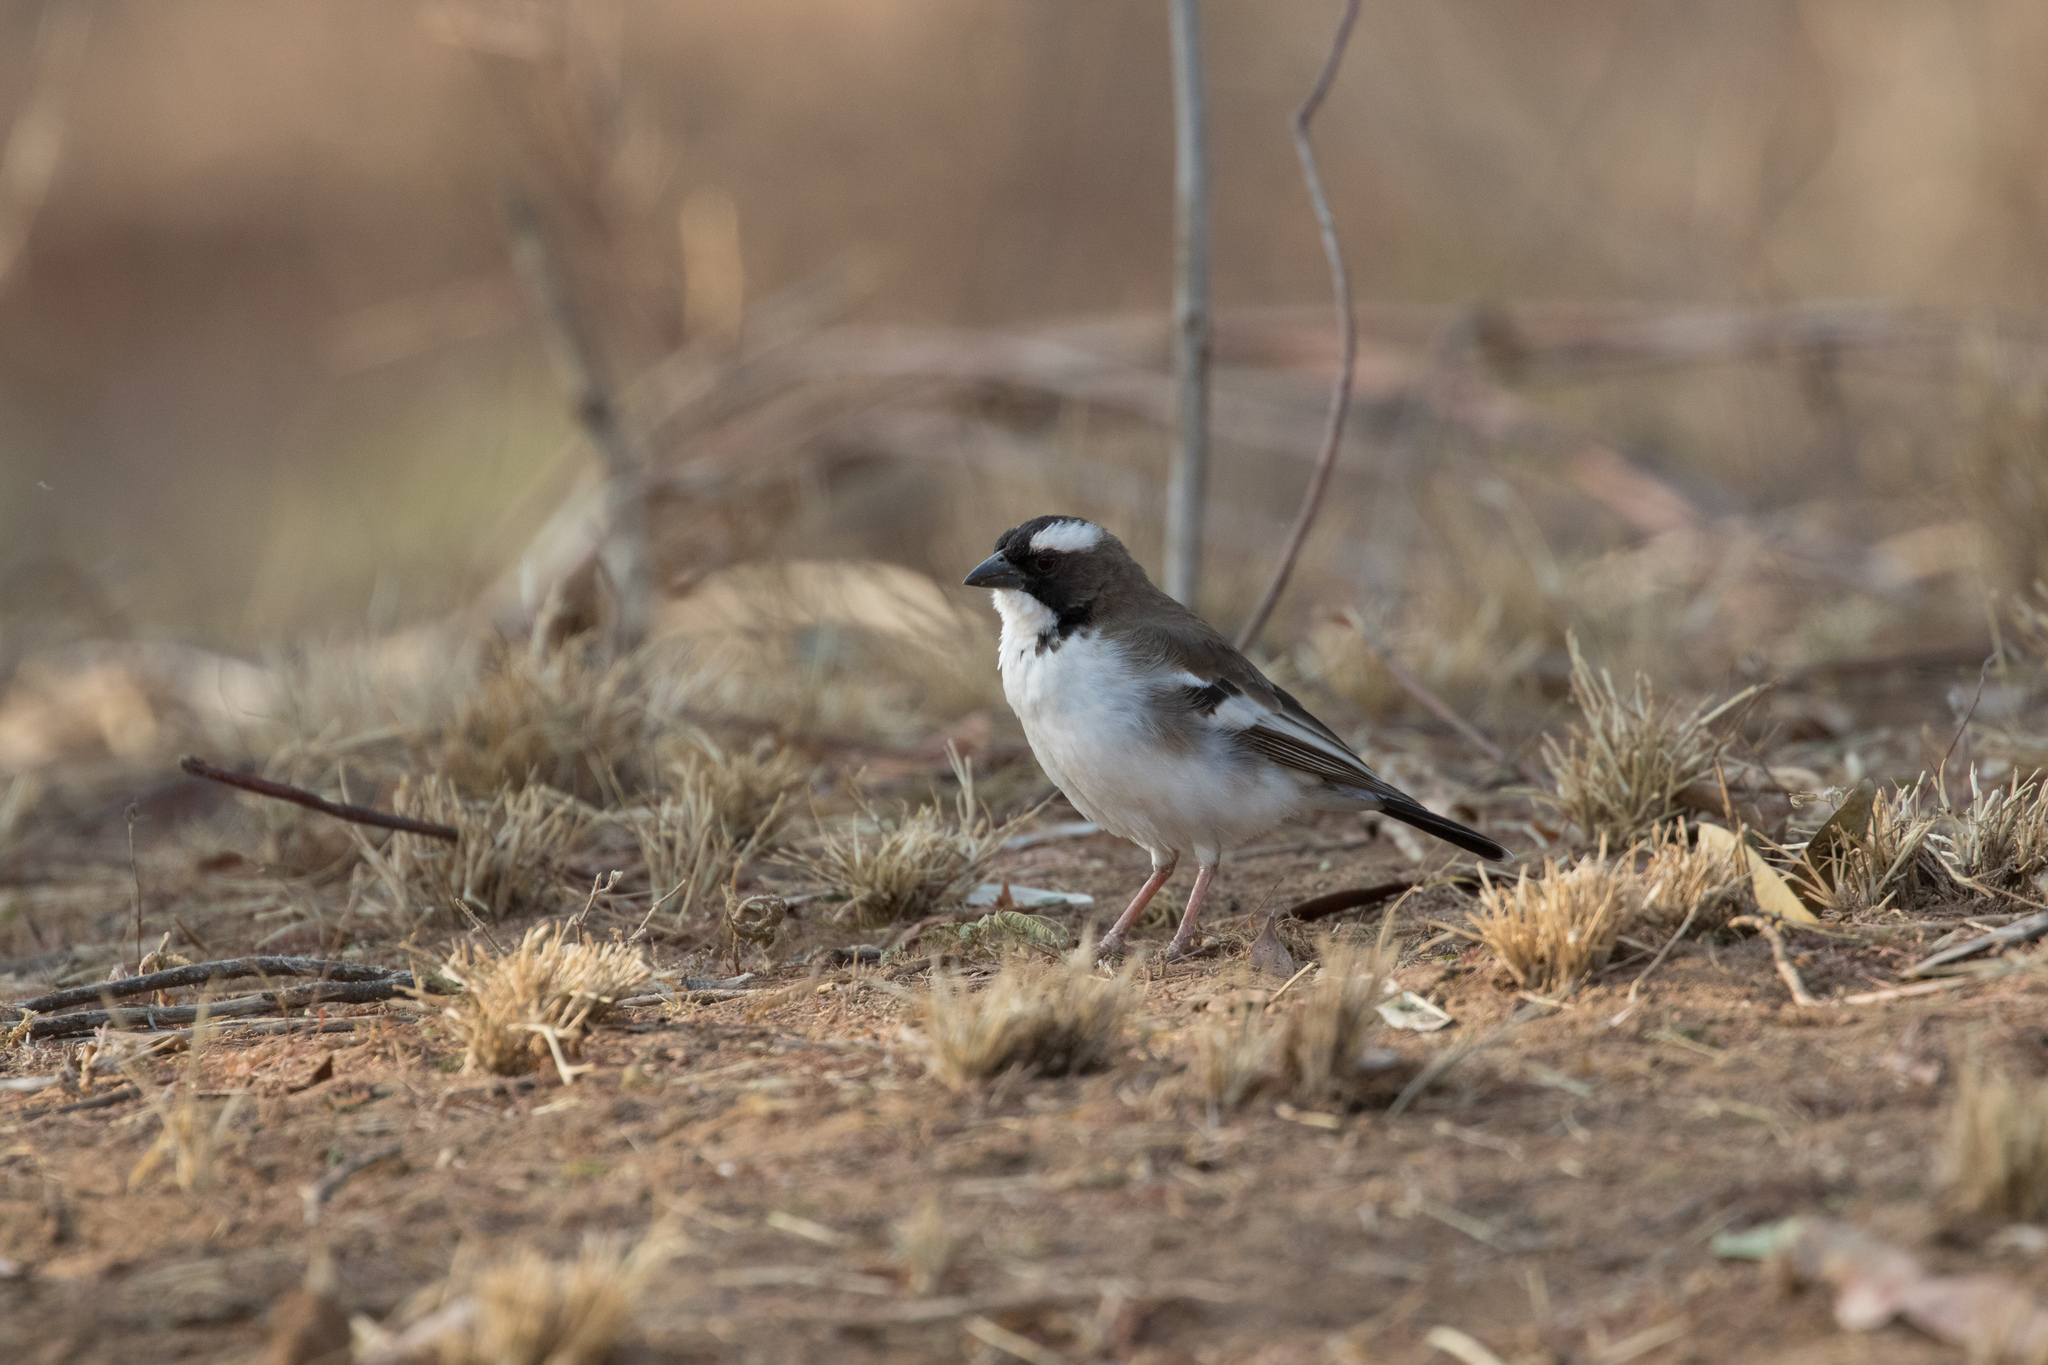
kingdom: Animalia
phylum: Chordata
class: Aves
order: Passeriformes
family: Passeridae
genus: Plocepasser
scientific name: Plocepasser mahali
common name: White-browed sparrow-weaver
